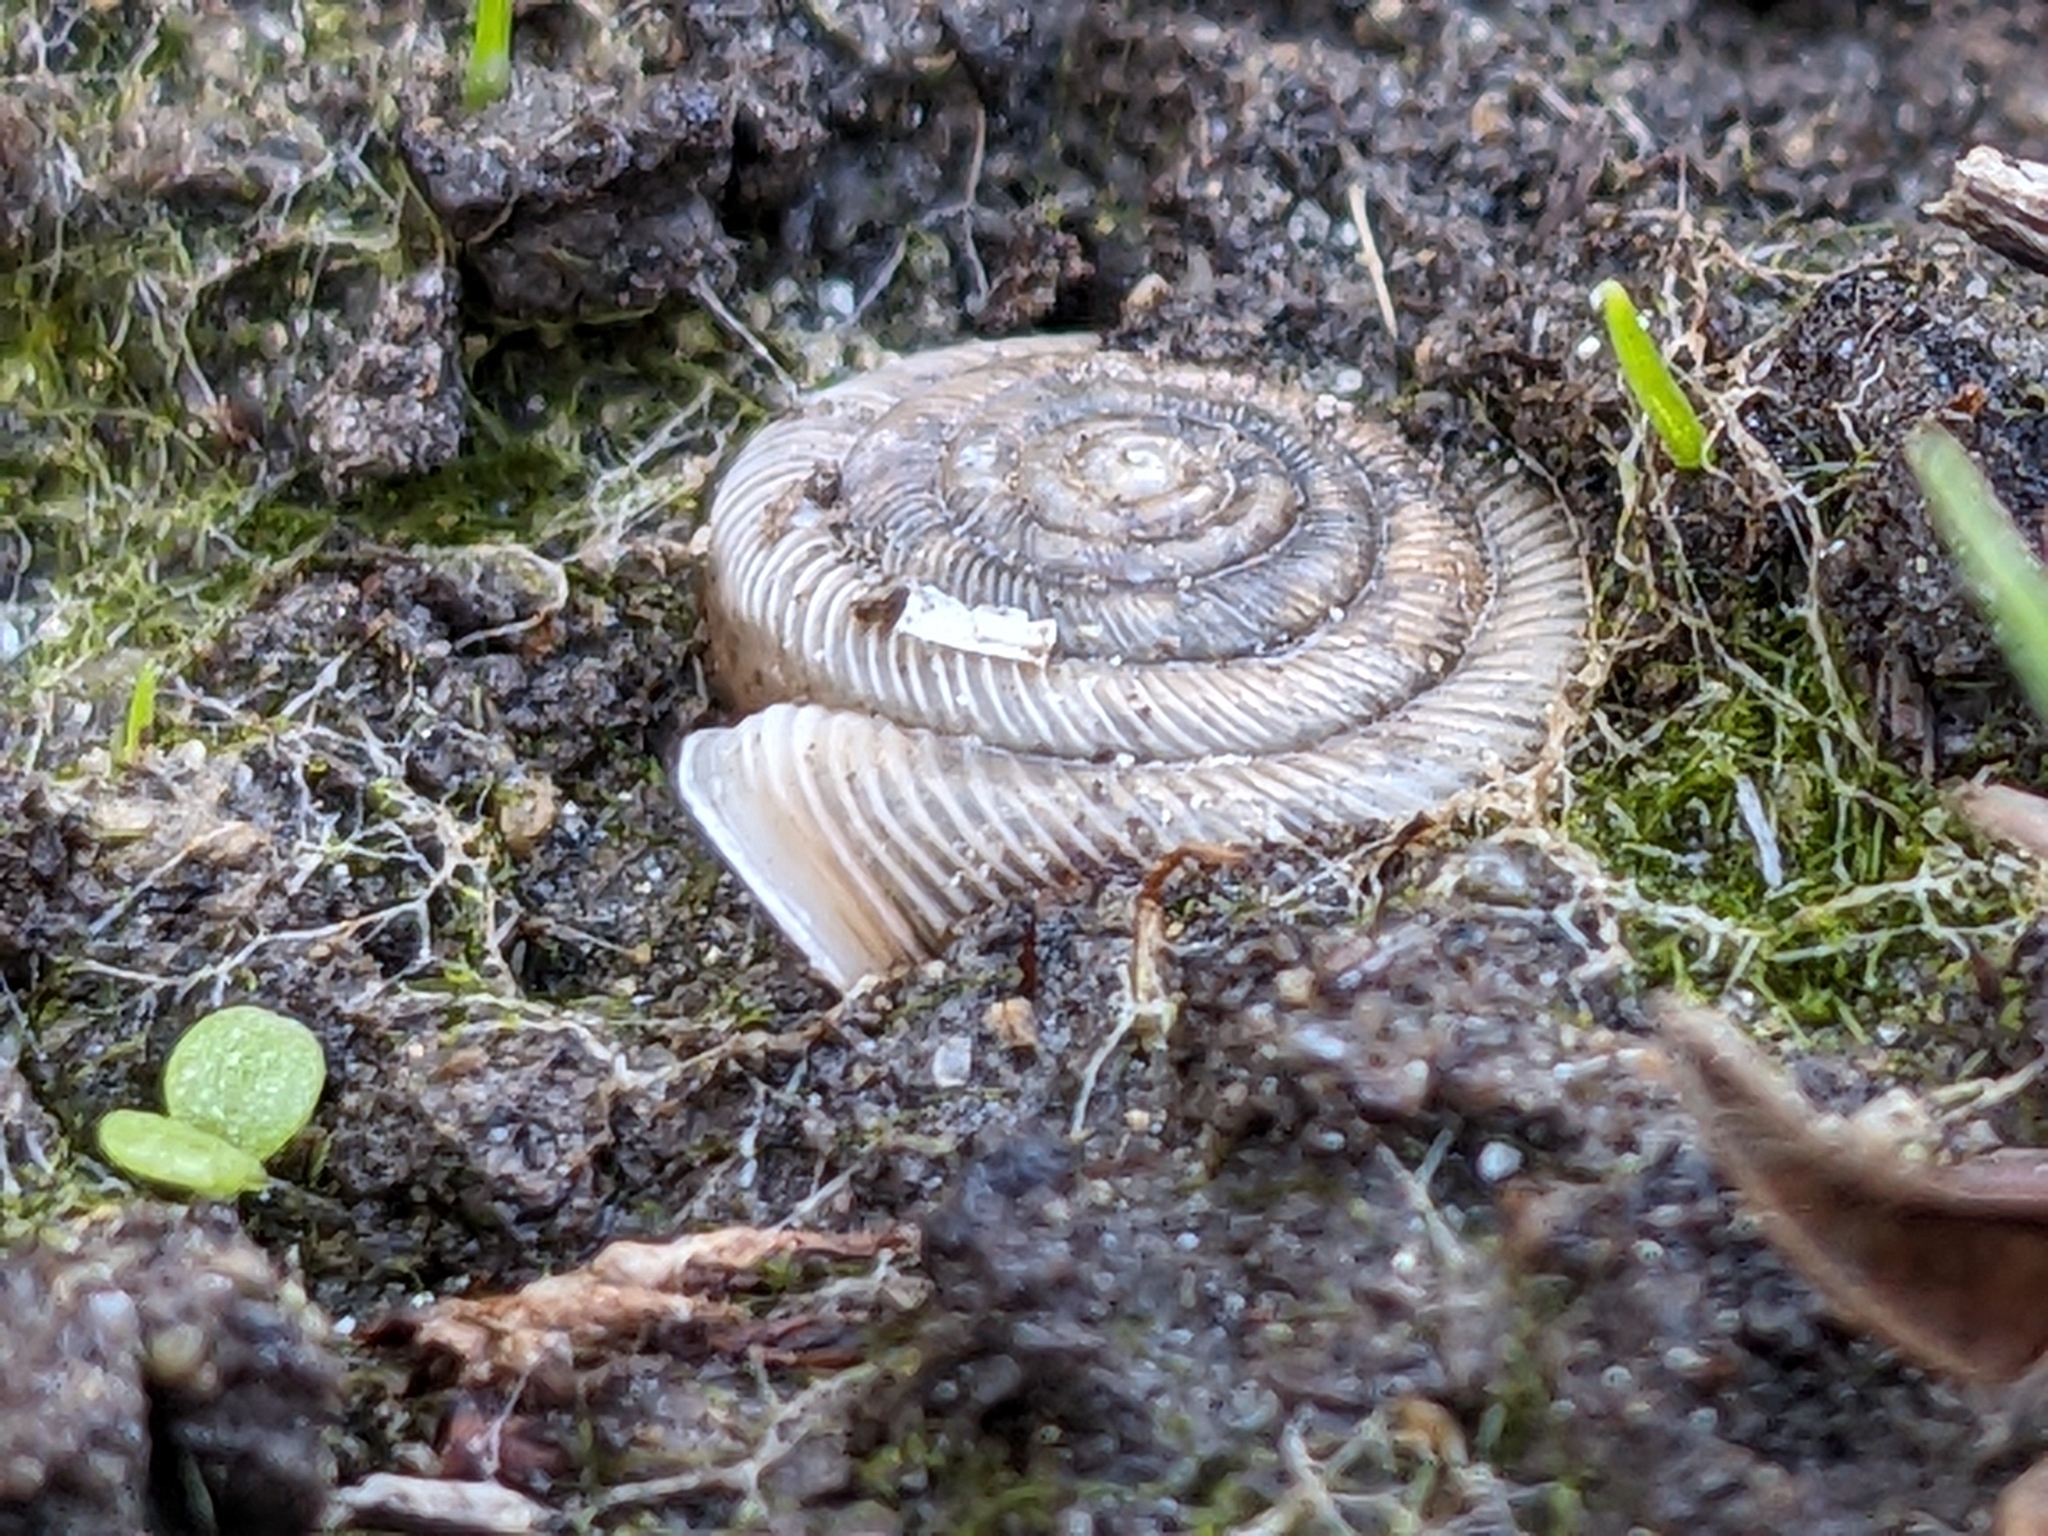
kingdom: Animalia
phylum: Mollusca
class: Gastropoda
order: Stylommatophora
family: Polygyridae
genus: Polygyra
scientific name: Polygyra cereolus
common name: Southern flatcone snail
